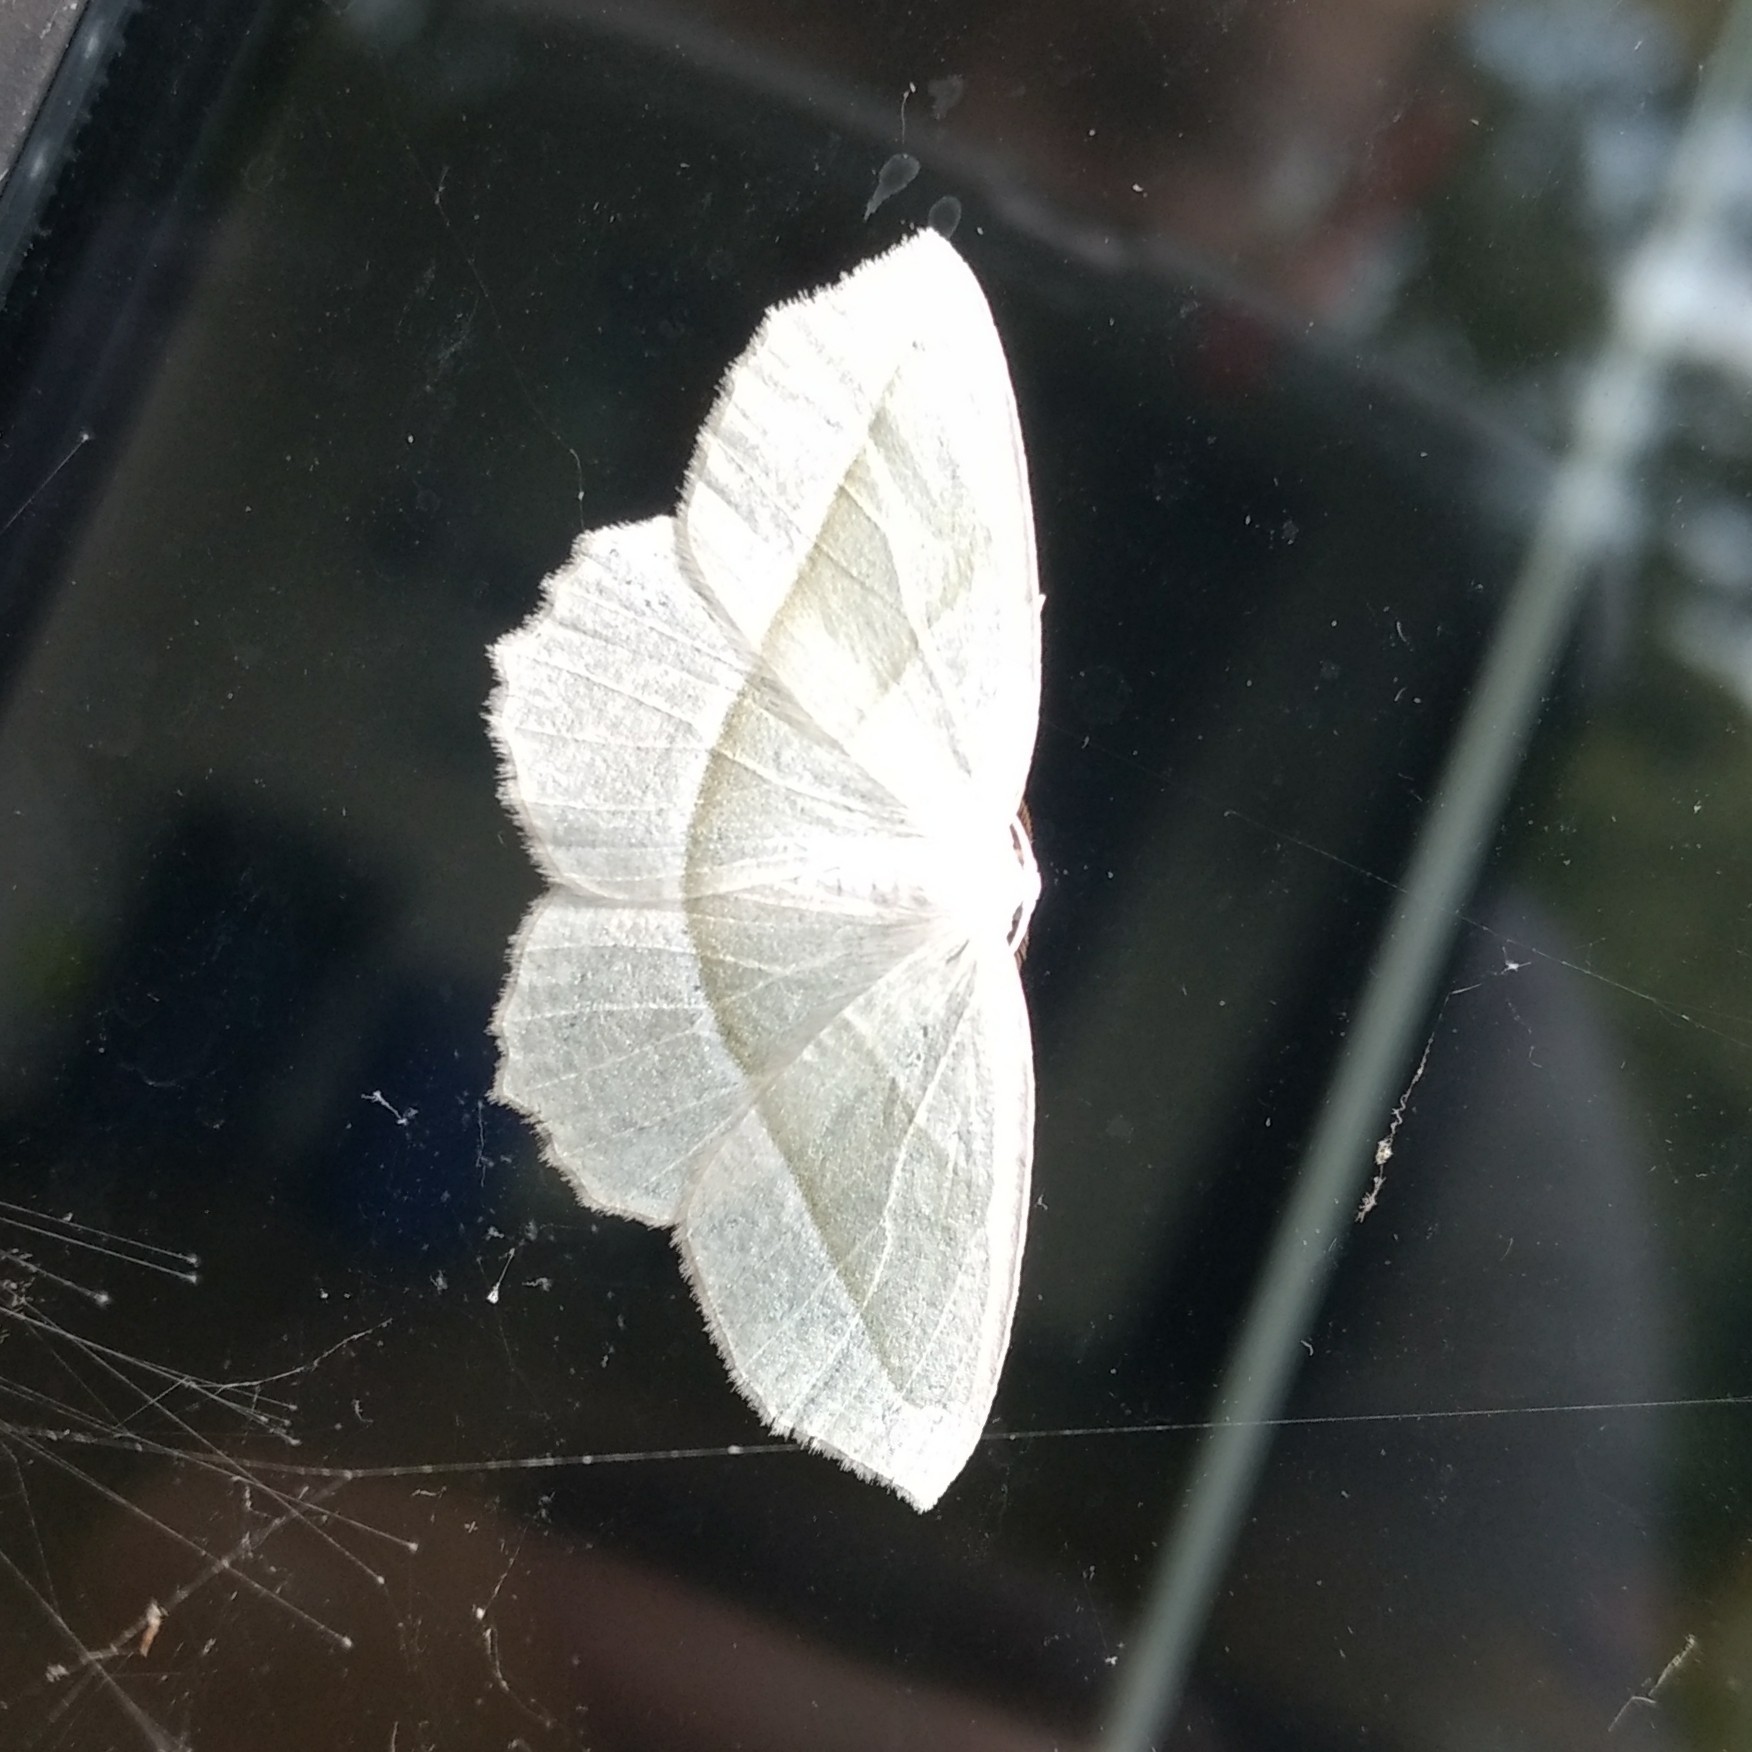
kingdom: Animalia
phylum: Arthropoda
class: Insecta
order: Lepidoptera
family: Geometridae
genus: Campaea
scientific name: Campaea perlata
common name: Fringed looper
